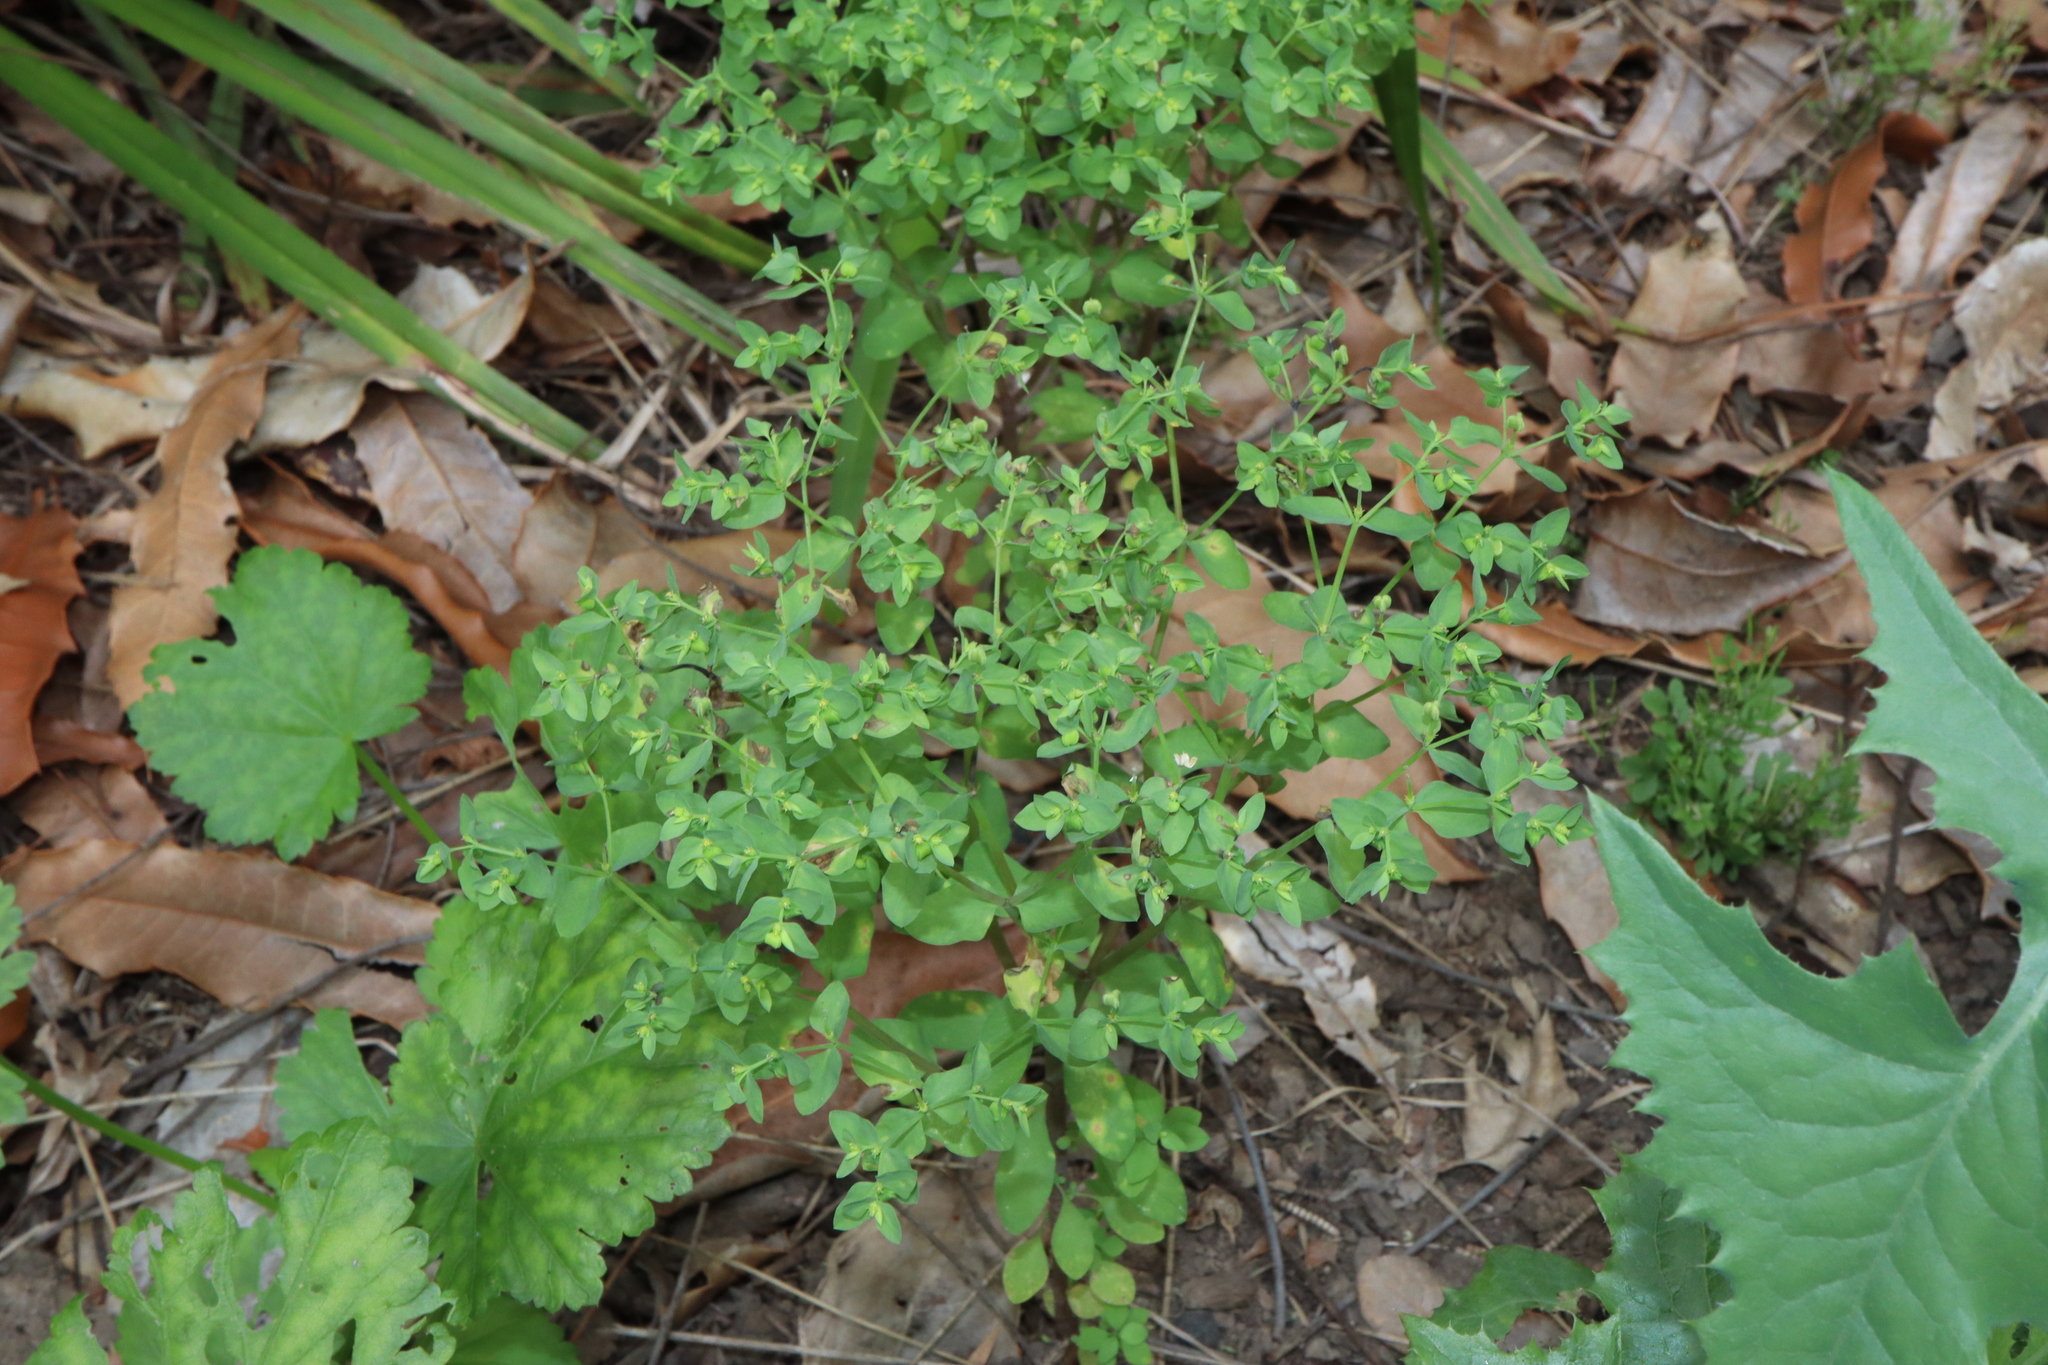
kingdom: Plantae
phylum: Tracheophyta
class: Magnoliopsida
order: Malpighiales
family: Euphorbiaceae
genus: Euphorbia
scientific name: Euphorbia peplus
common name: Petty spurge
